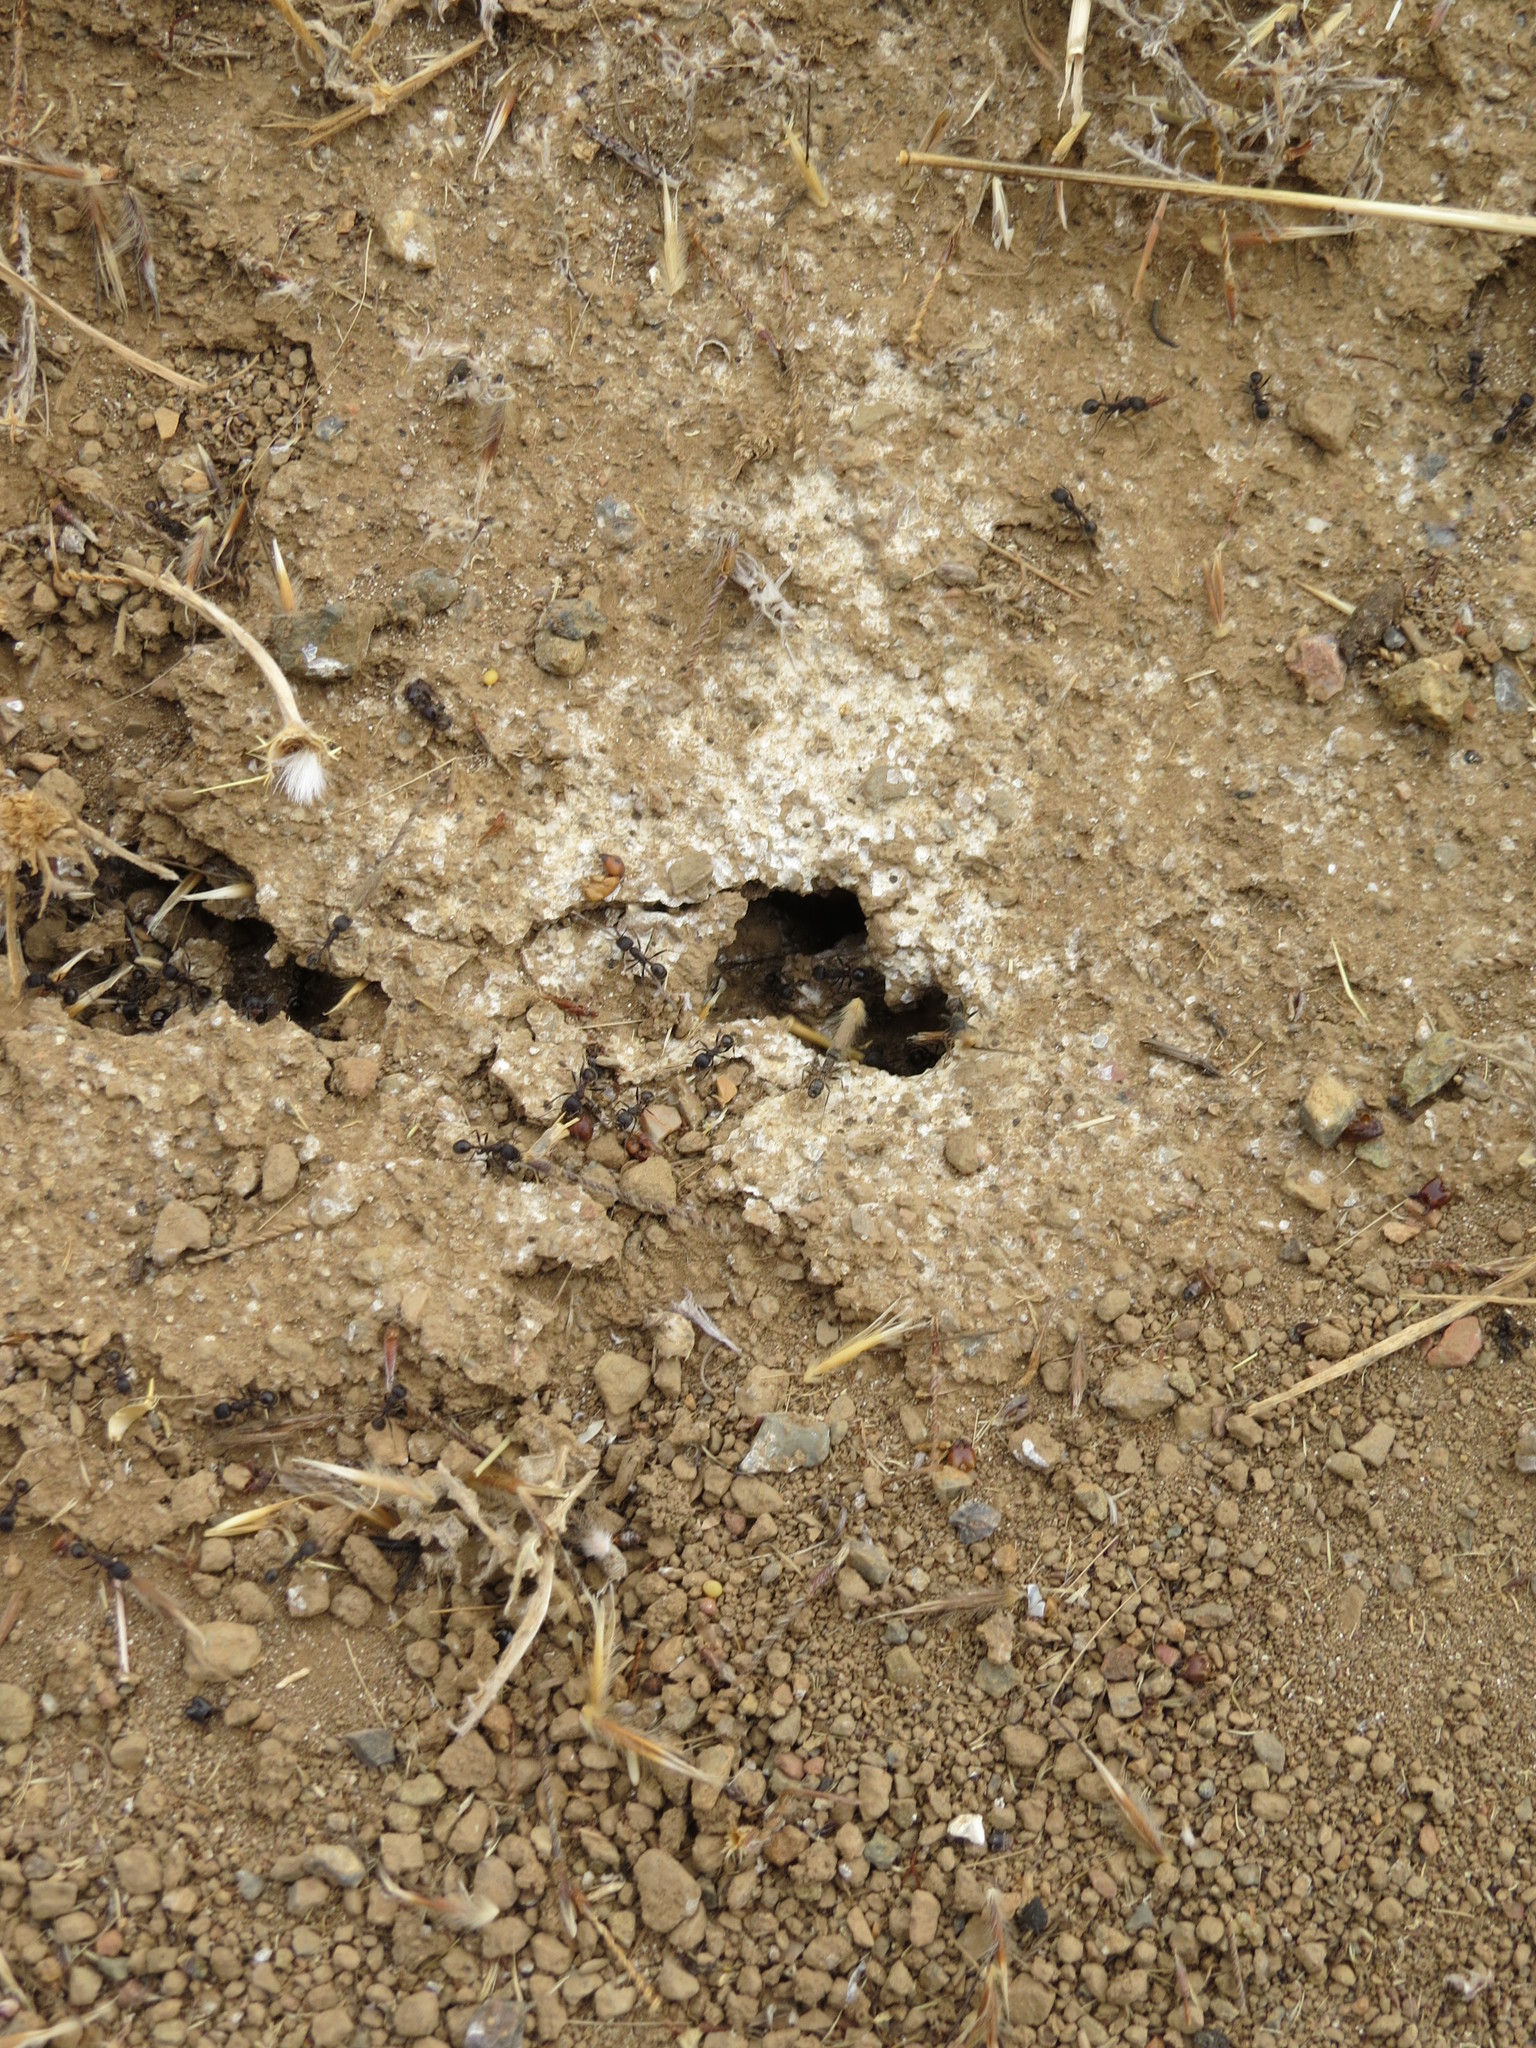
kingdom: Animalia
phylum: Arthropoda
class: Insecta
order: Hymenoptera
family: Formicidae
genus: Veromessor
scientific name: Veromessor andrei
